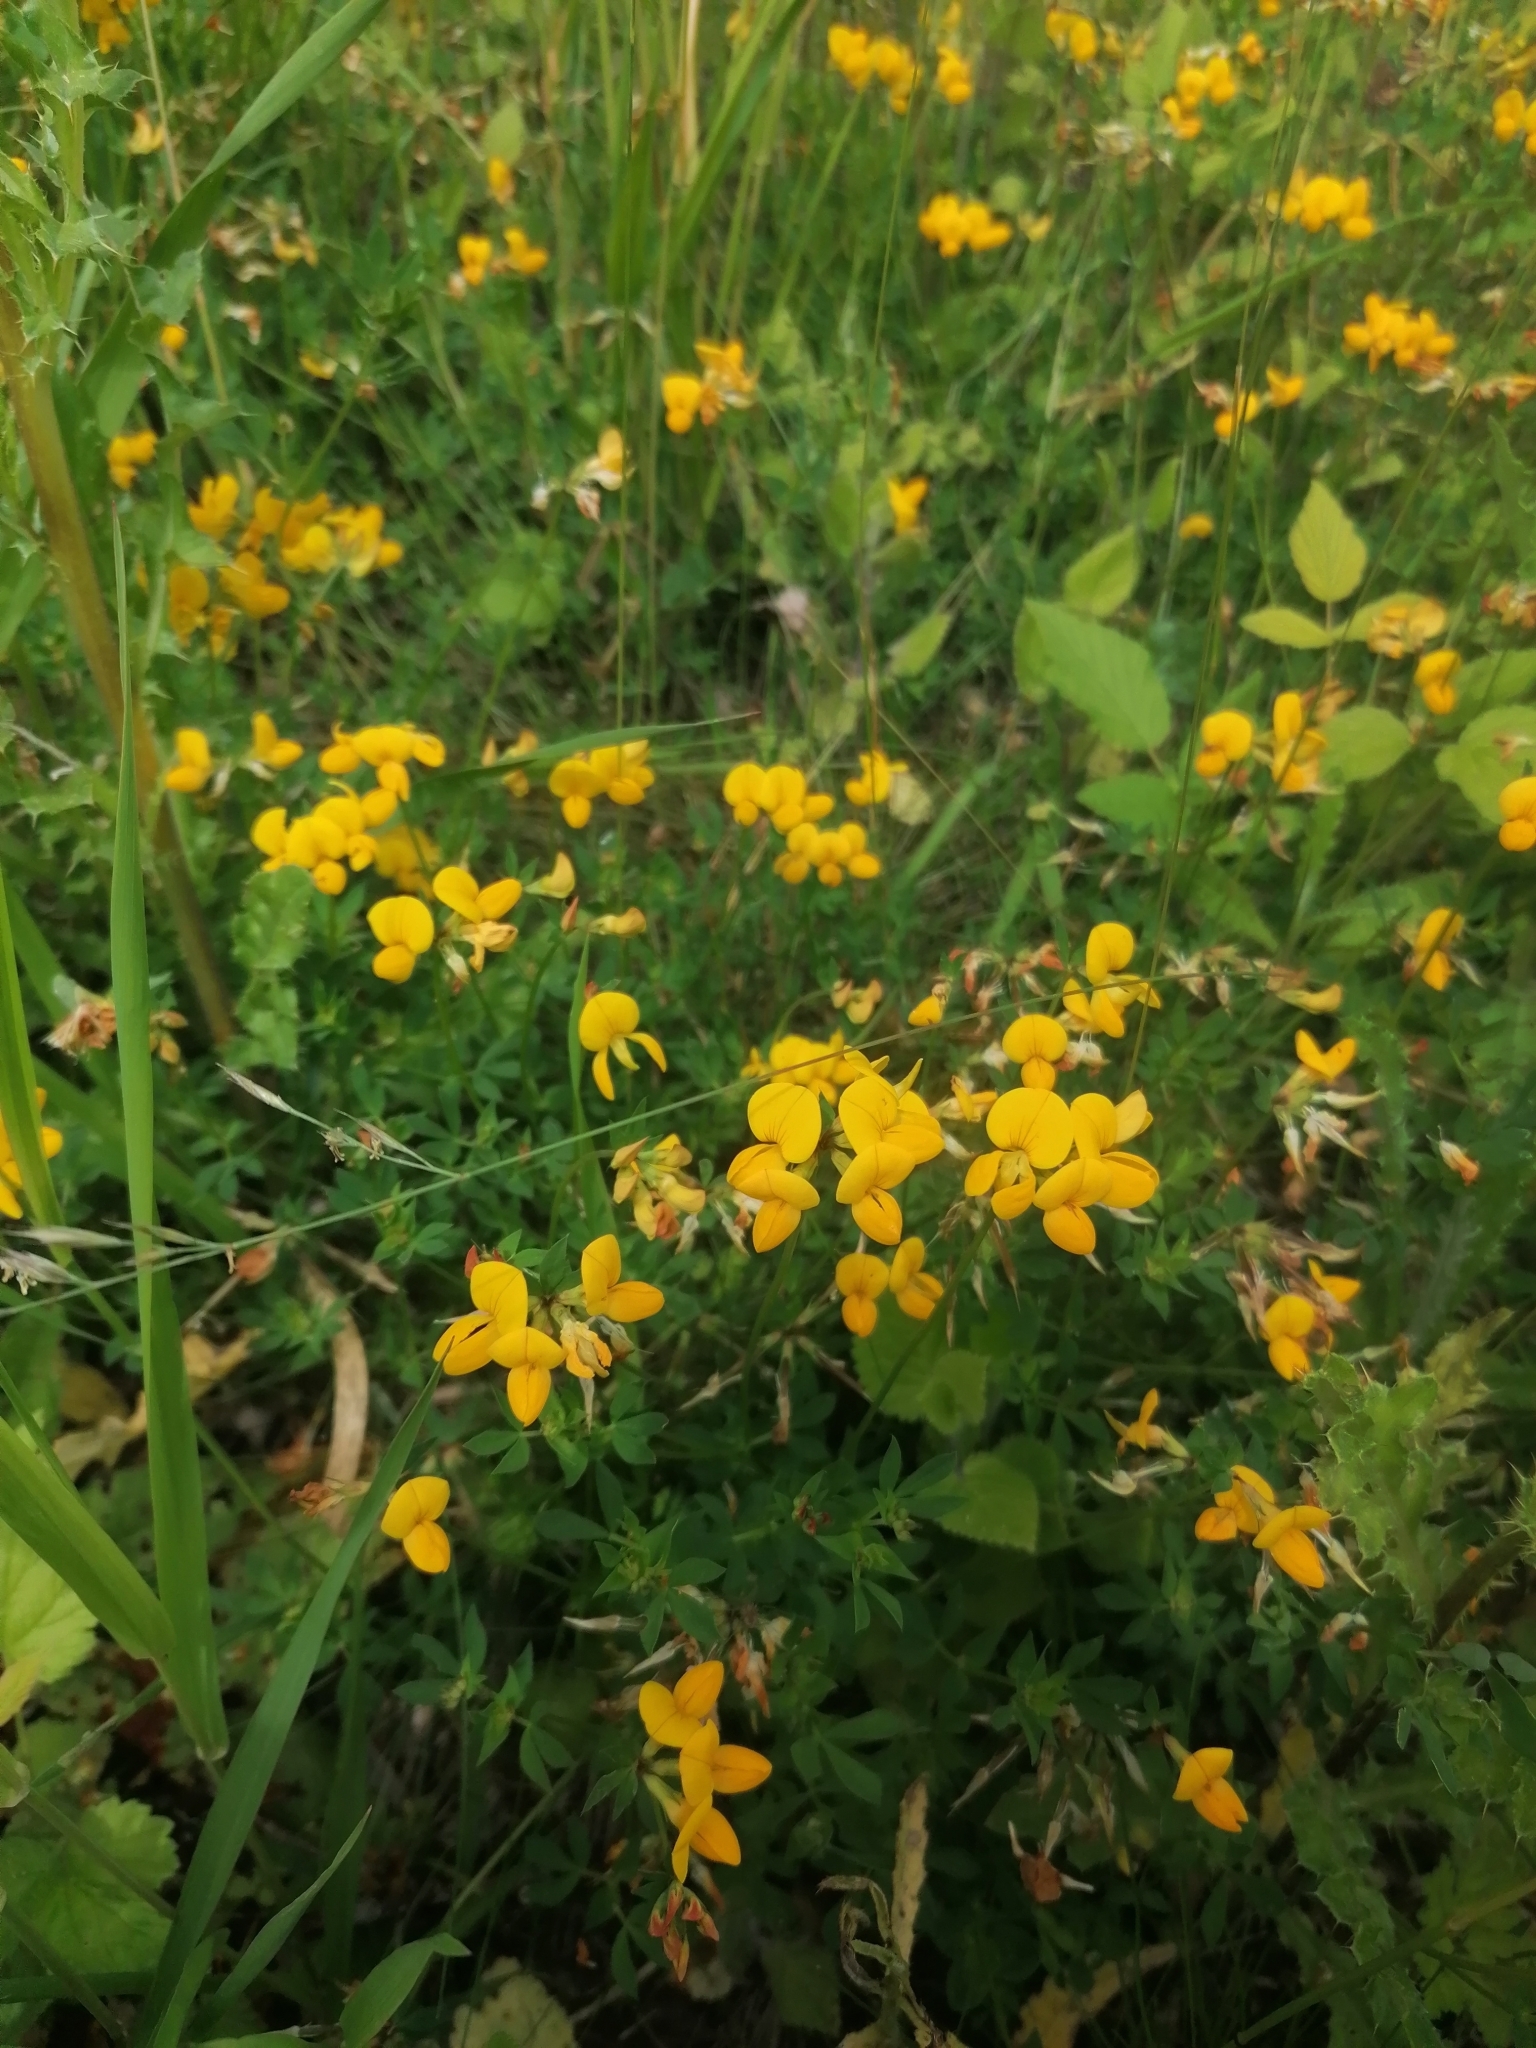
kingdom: Plantae
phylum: Tracheophyta
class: Magnoliopsida
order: Fabales
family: Fabaceae
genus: Lotus
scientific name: Lotus corniculatus
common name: Common bird's-foot-trefoil
